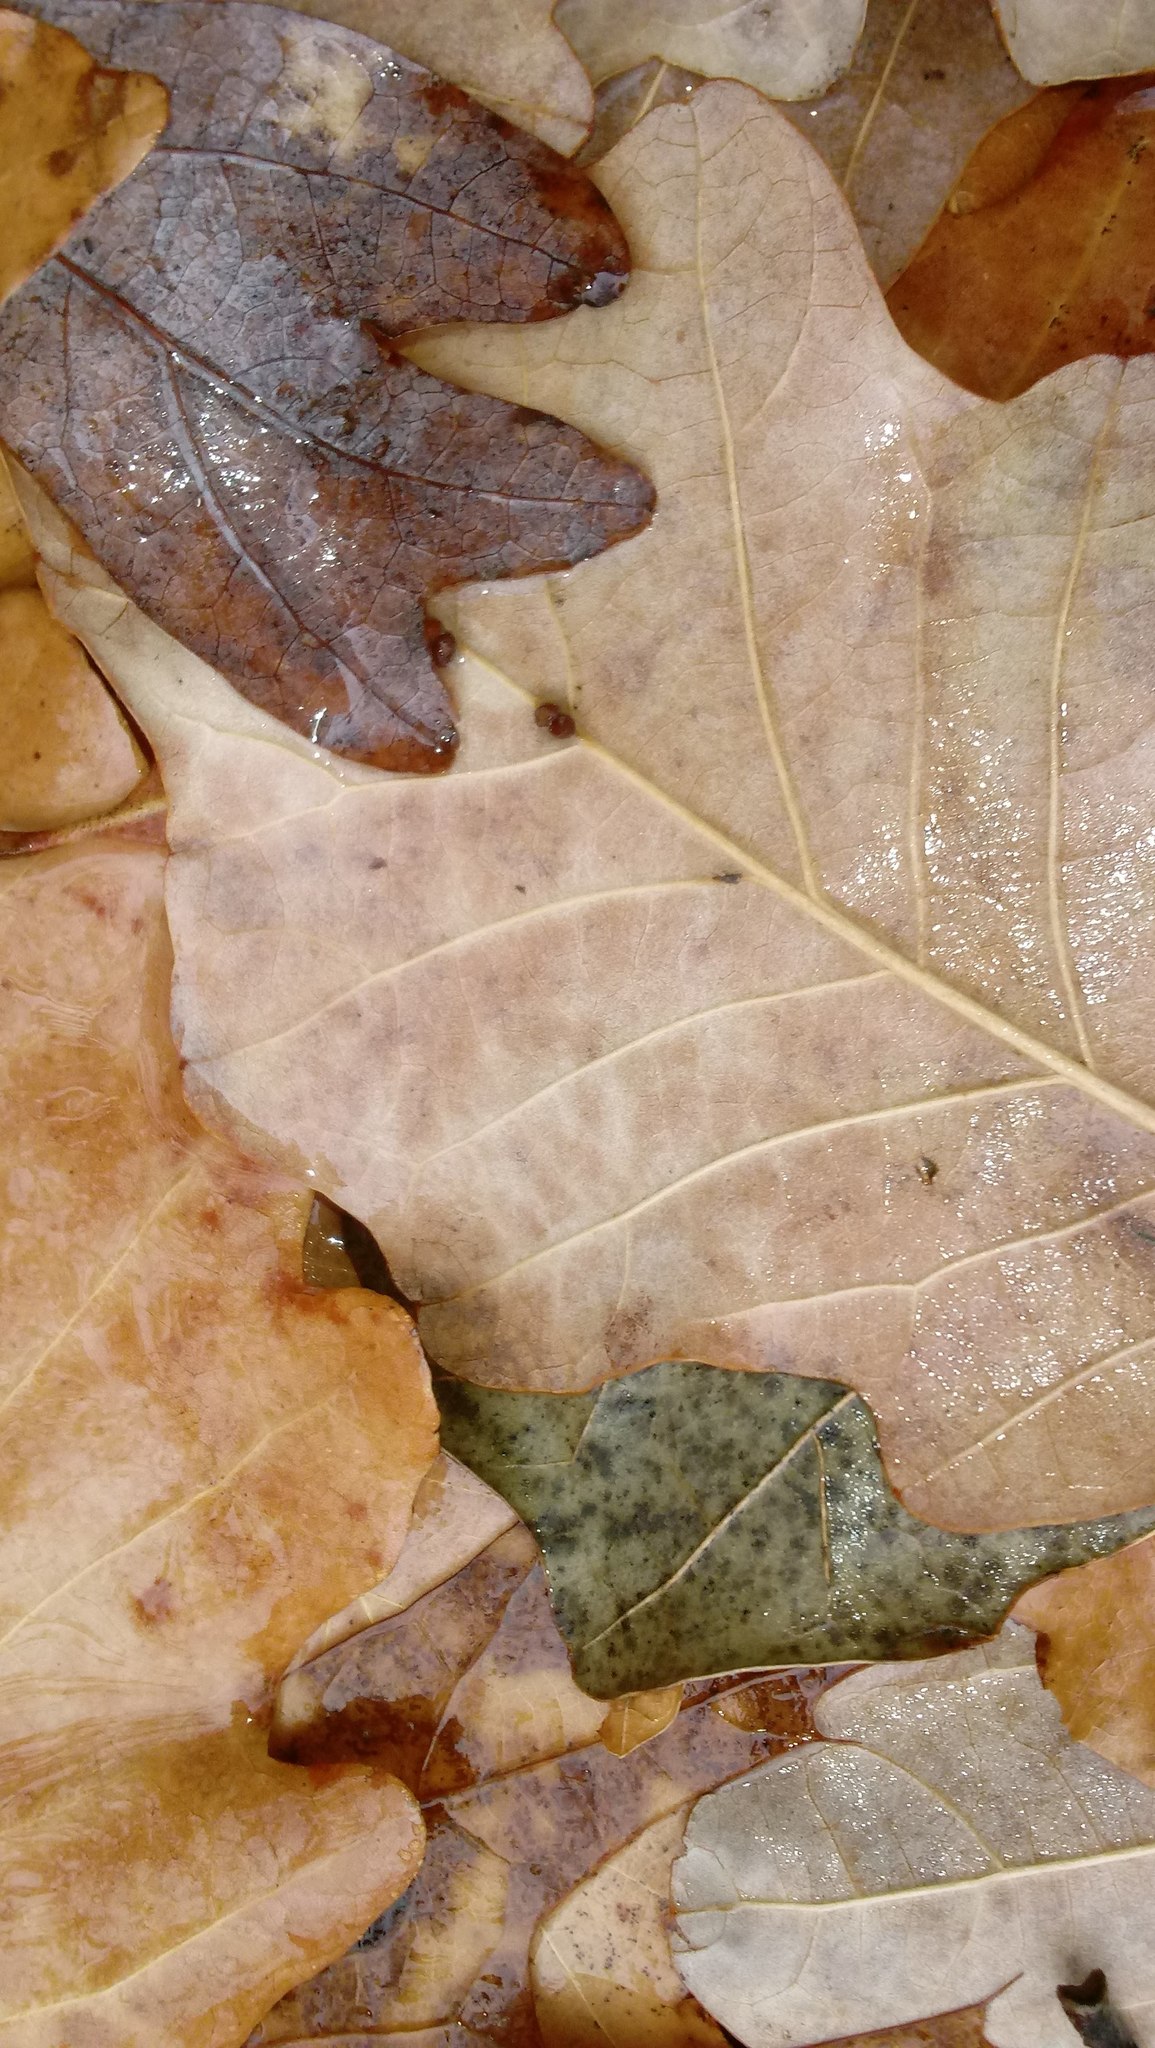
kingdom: Animalia
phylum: Arthropoda
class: Insecta
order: Hymenoptera
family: Cynipidae
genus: Andricus
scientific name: Andricus Druon ignotum
